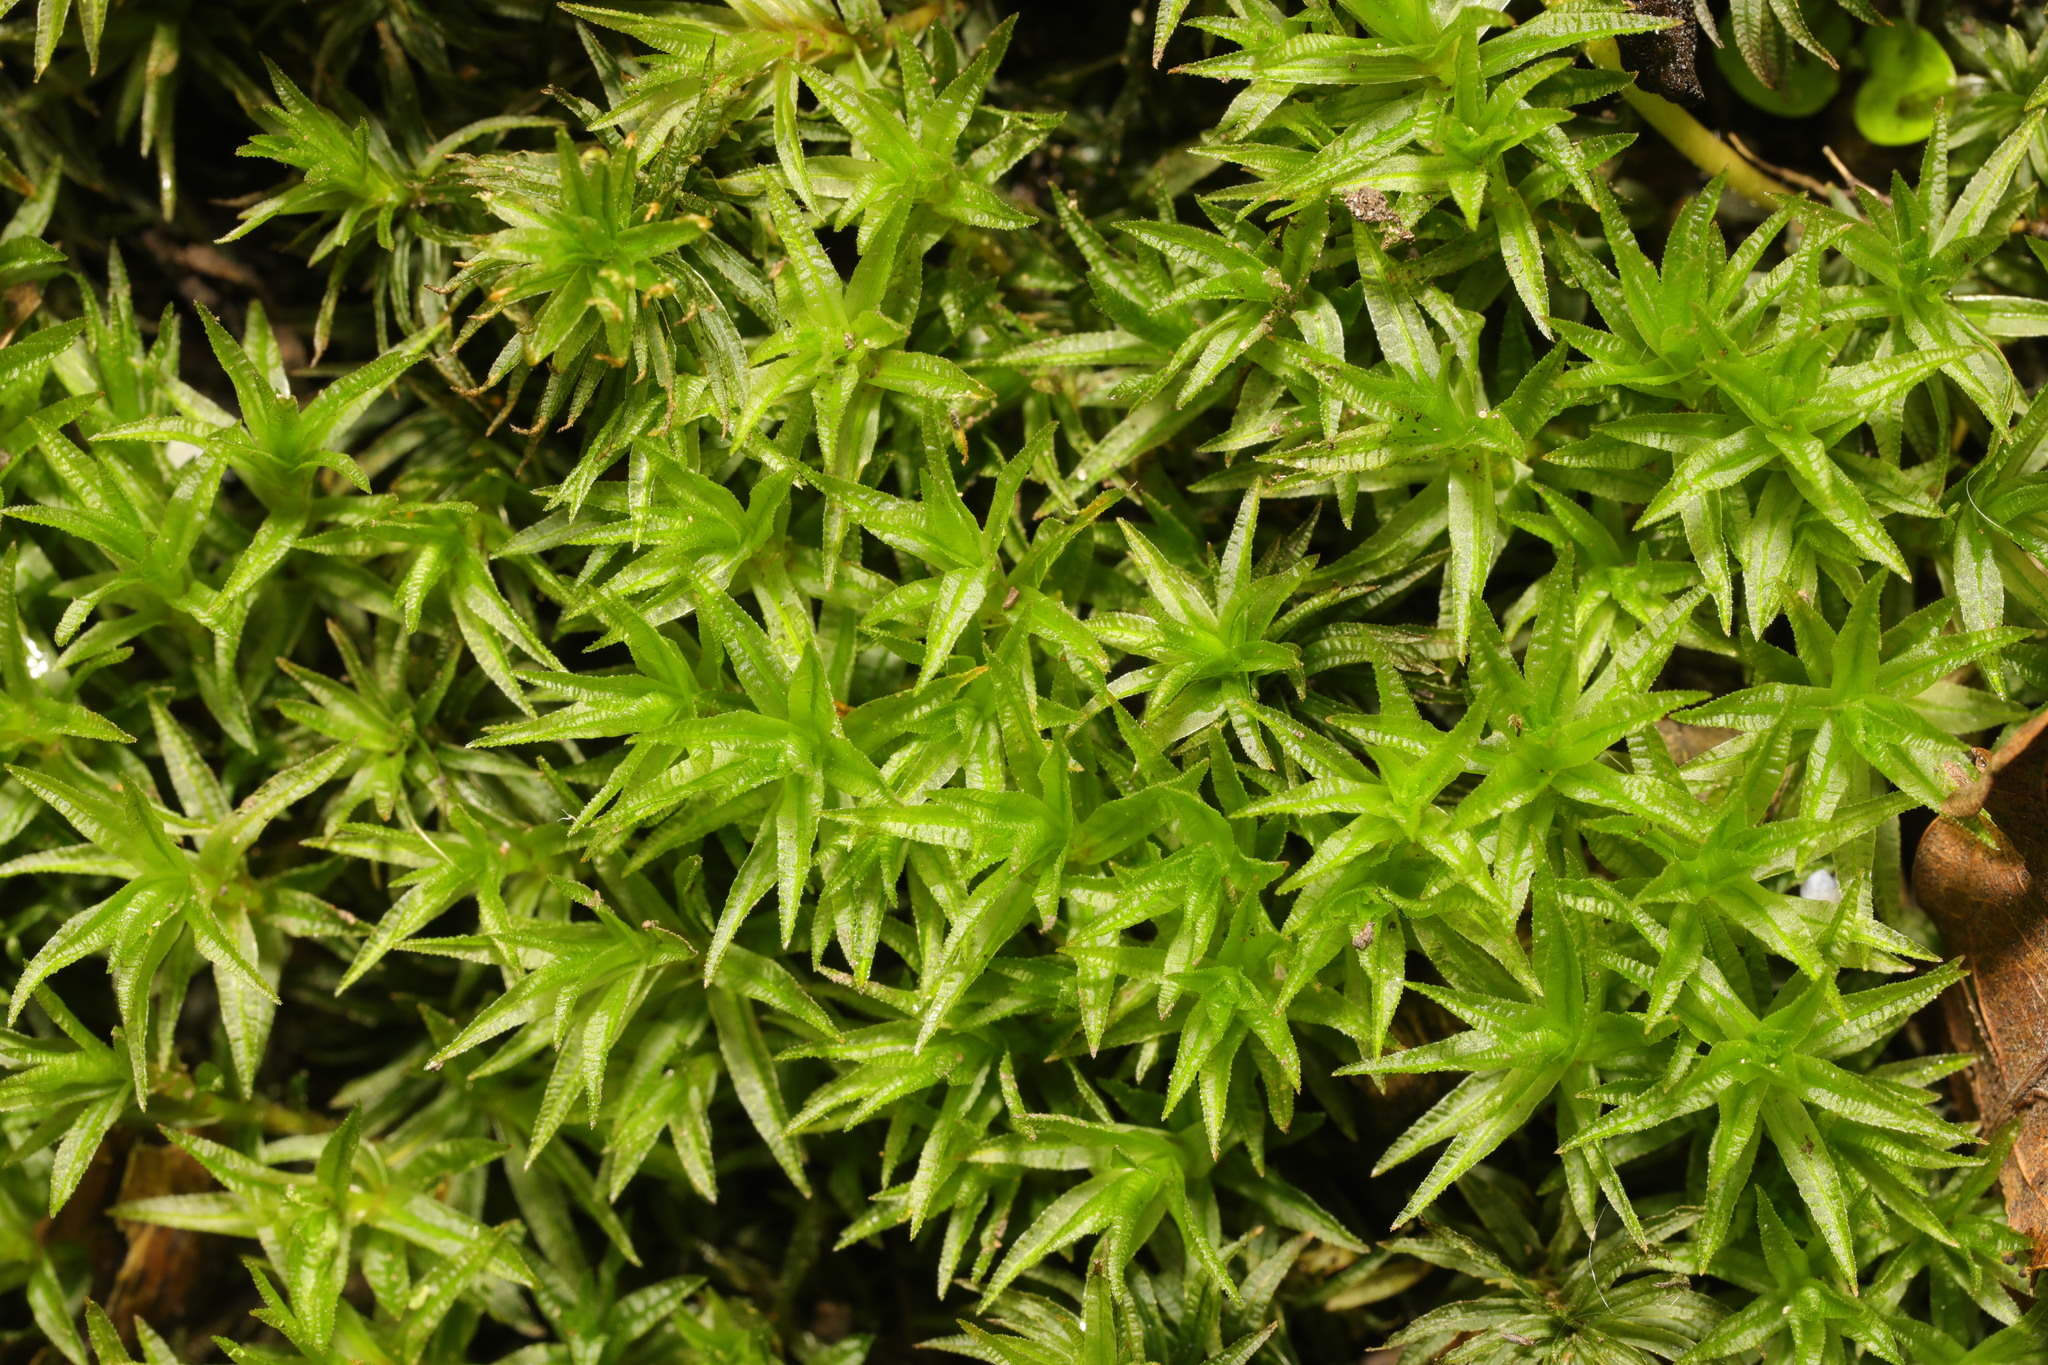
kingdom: Plantae
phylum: Bryophyta
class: Polytrichopsida
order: Polytrichales
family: Polytrichaceae
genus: Atrichum
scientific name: Atrichum undulatum
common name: Common smoothcap
